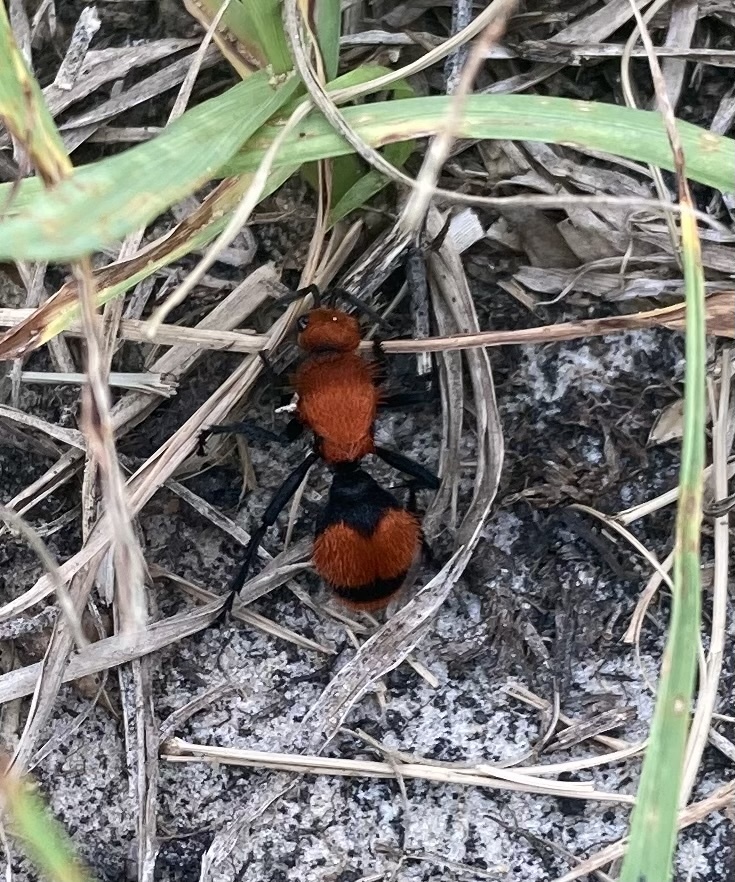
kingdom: Animalia
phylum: Arthropoda
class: Insecta
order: Hymenoptera
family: Mutillidae
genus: Dasymutilla
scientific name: Dasymutilla occidentalis
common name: Common eastern velvet ant
